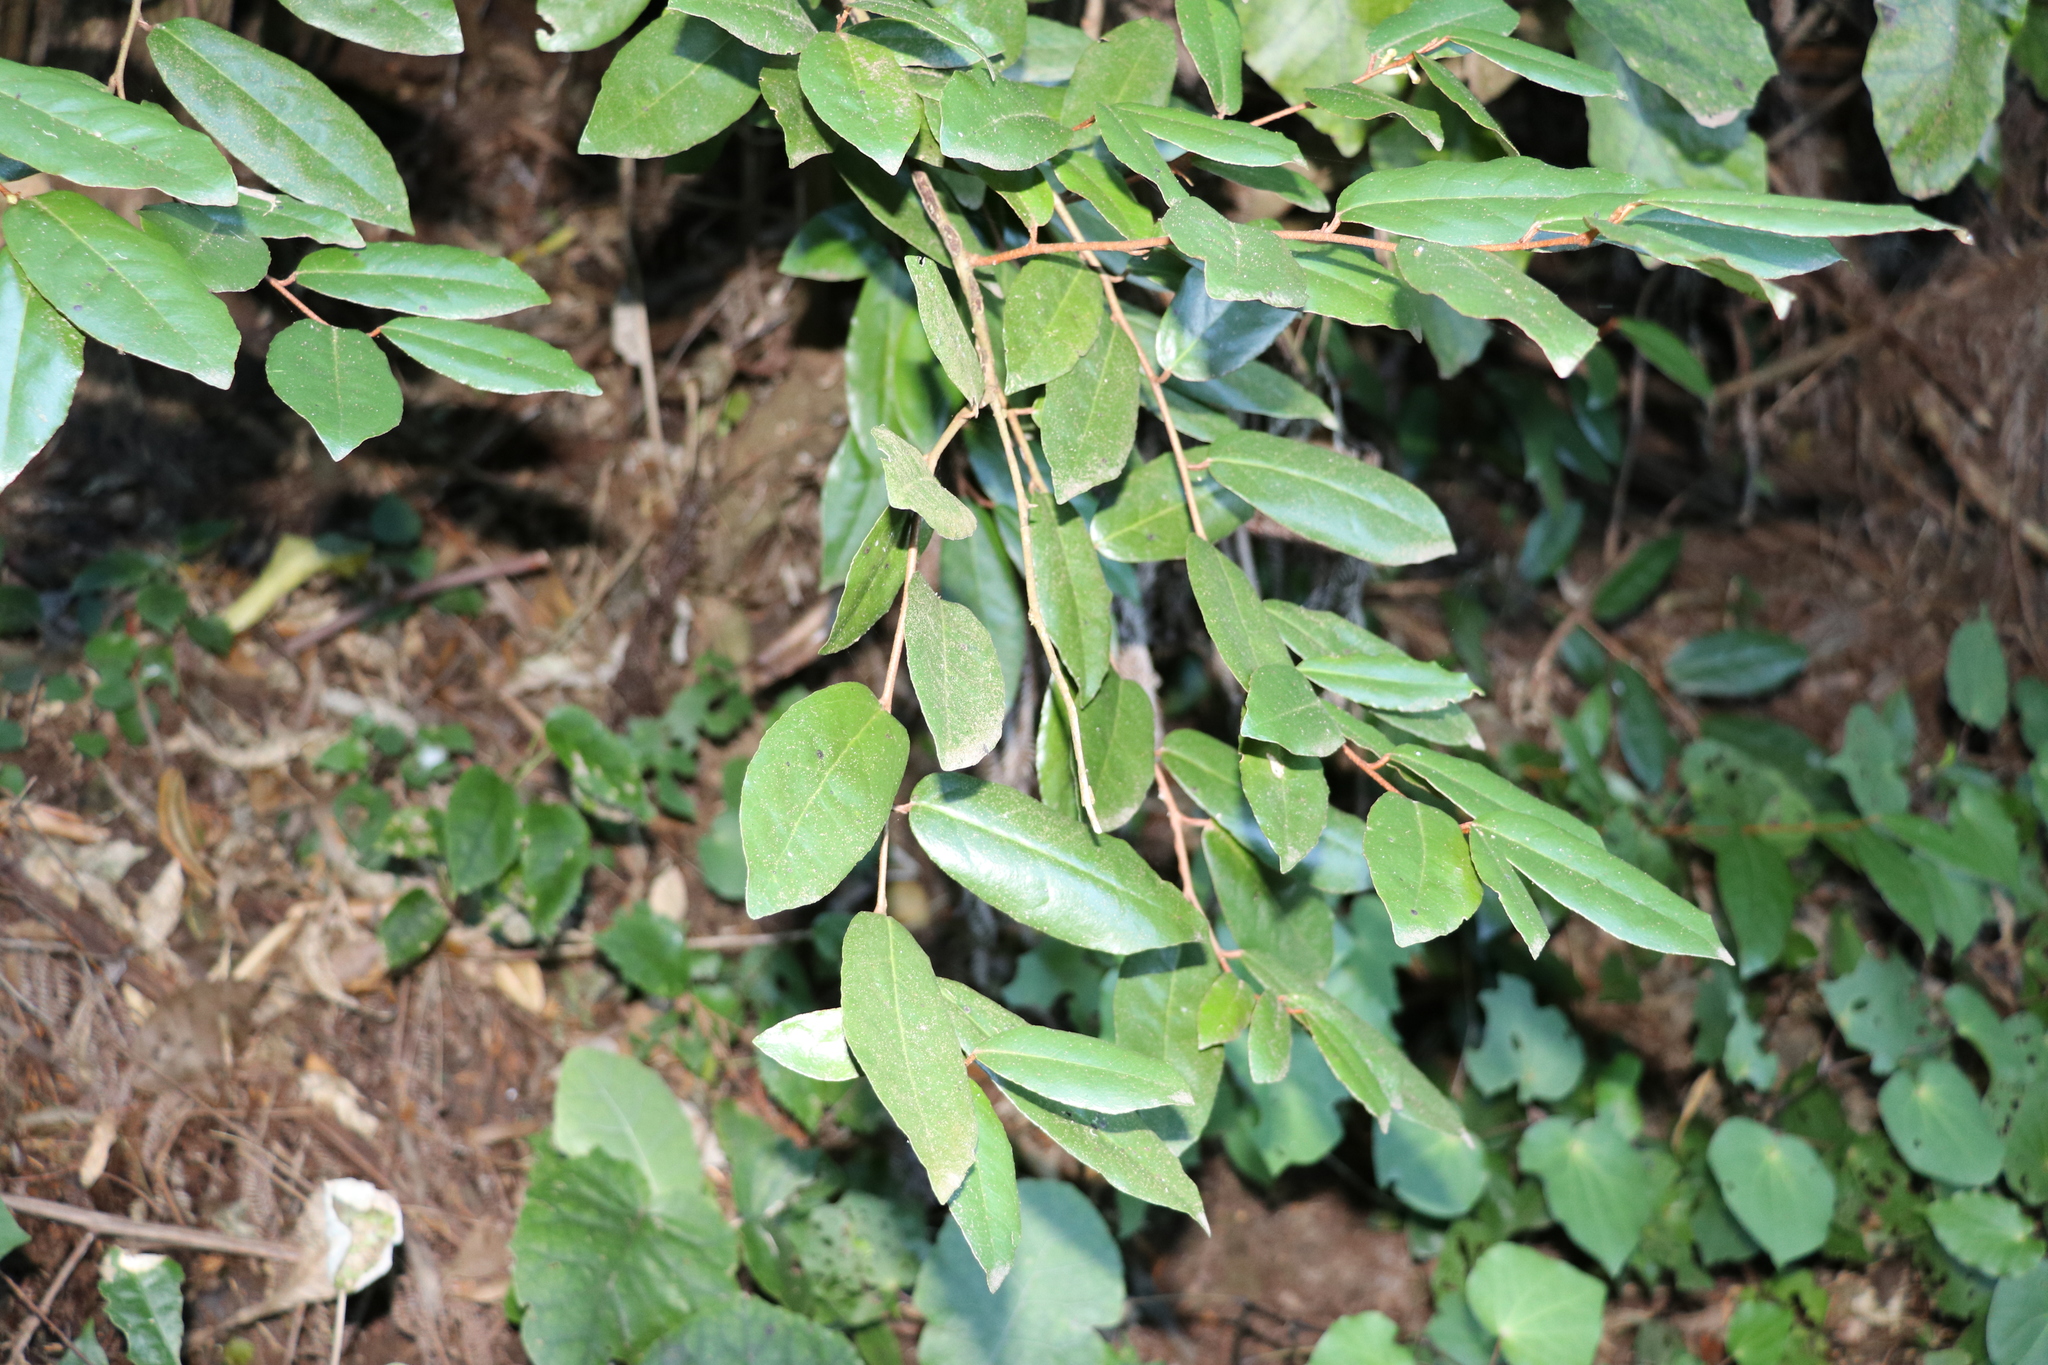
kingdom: Plantae
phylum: Tracheophyta
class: Magnoliopsida
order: Rosales
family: Elaeagnaceae
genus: Elaeagnus
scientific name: Elaeagnus reflexa
